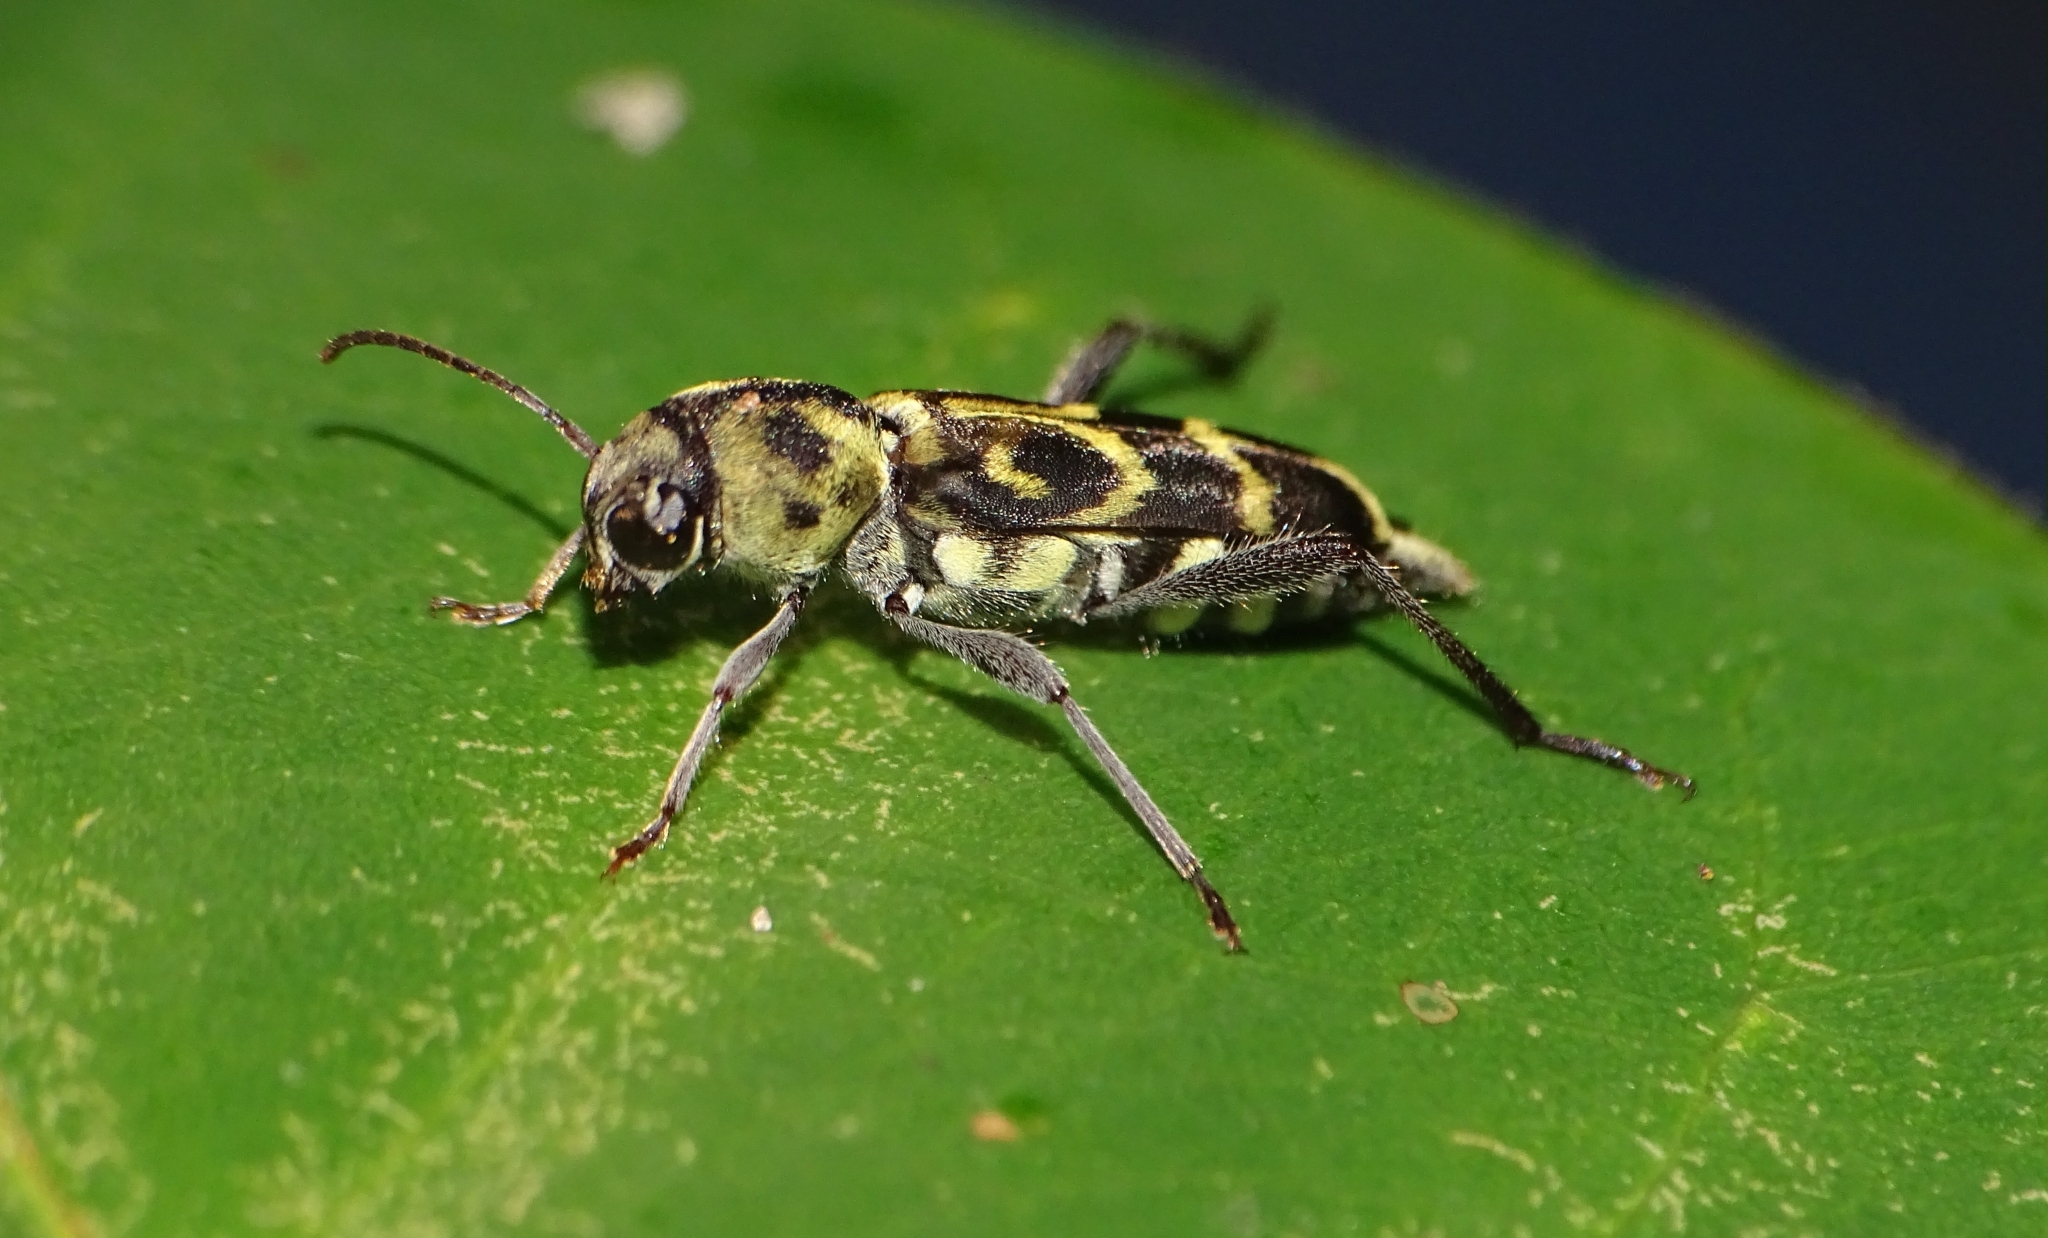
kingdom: Animalia
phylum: Arthropoda
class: Insecta
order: Coleoptera
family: Cerambycidae
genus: Xylotrechus
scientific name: Xylotrechus subscutellatus
